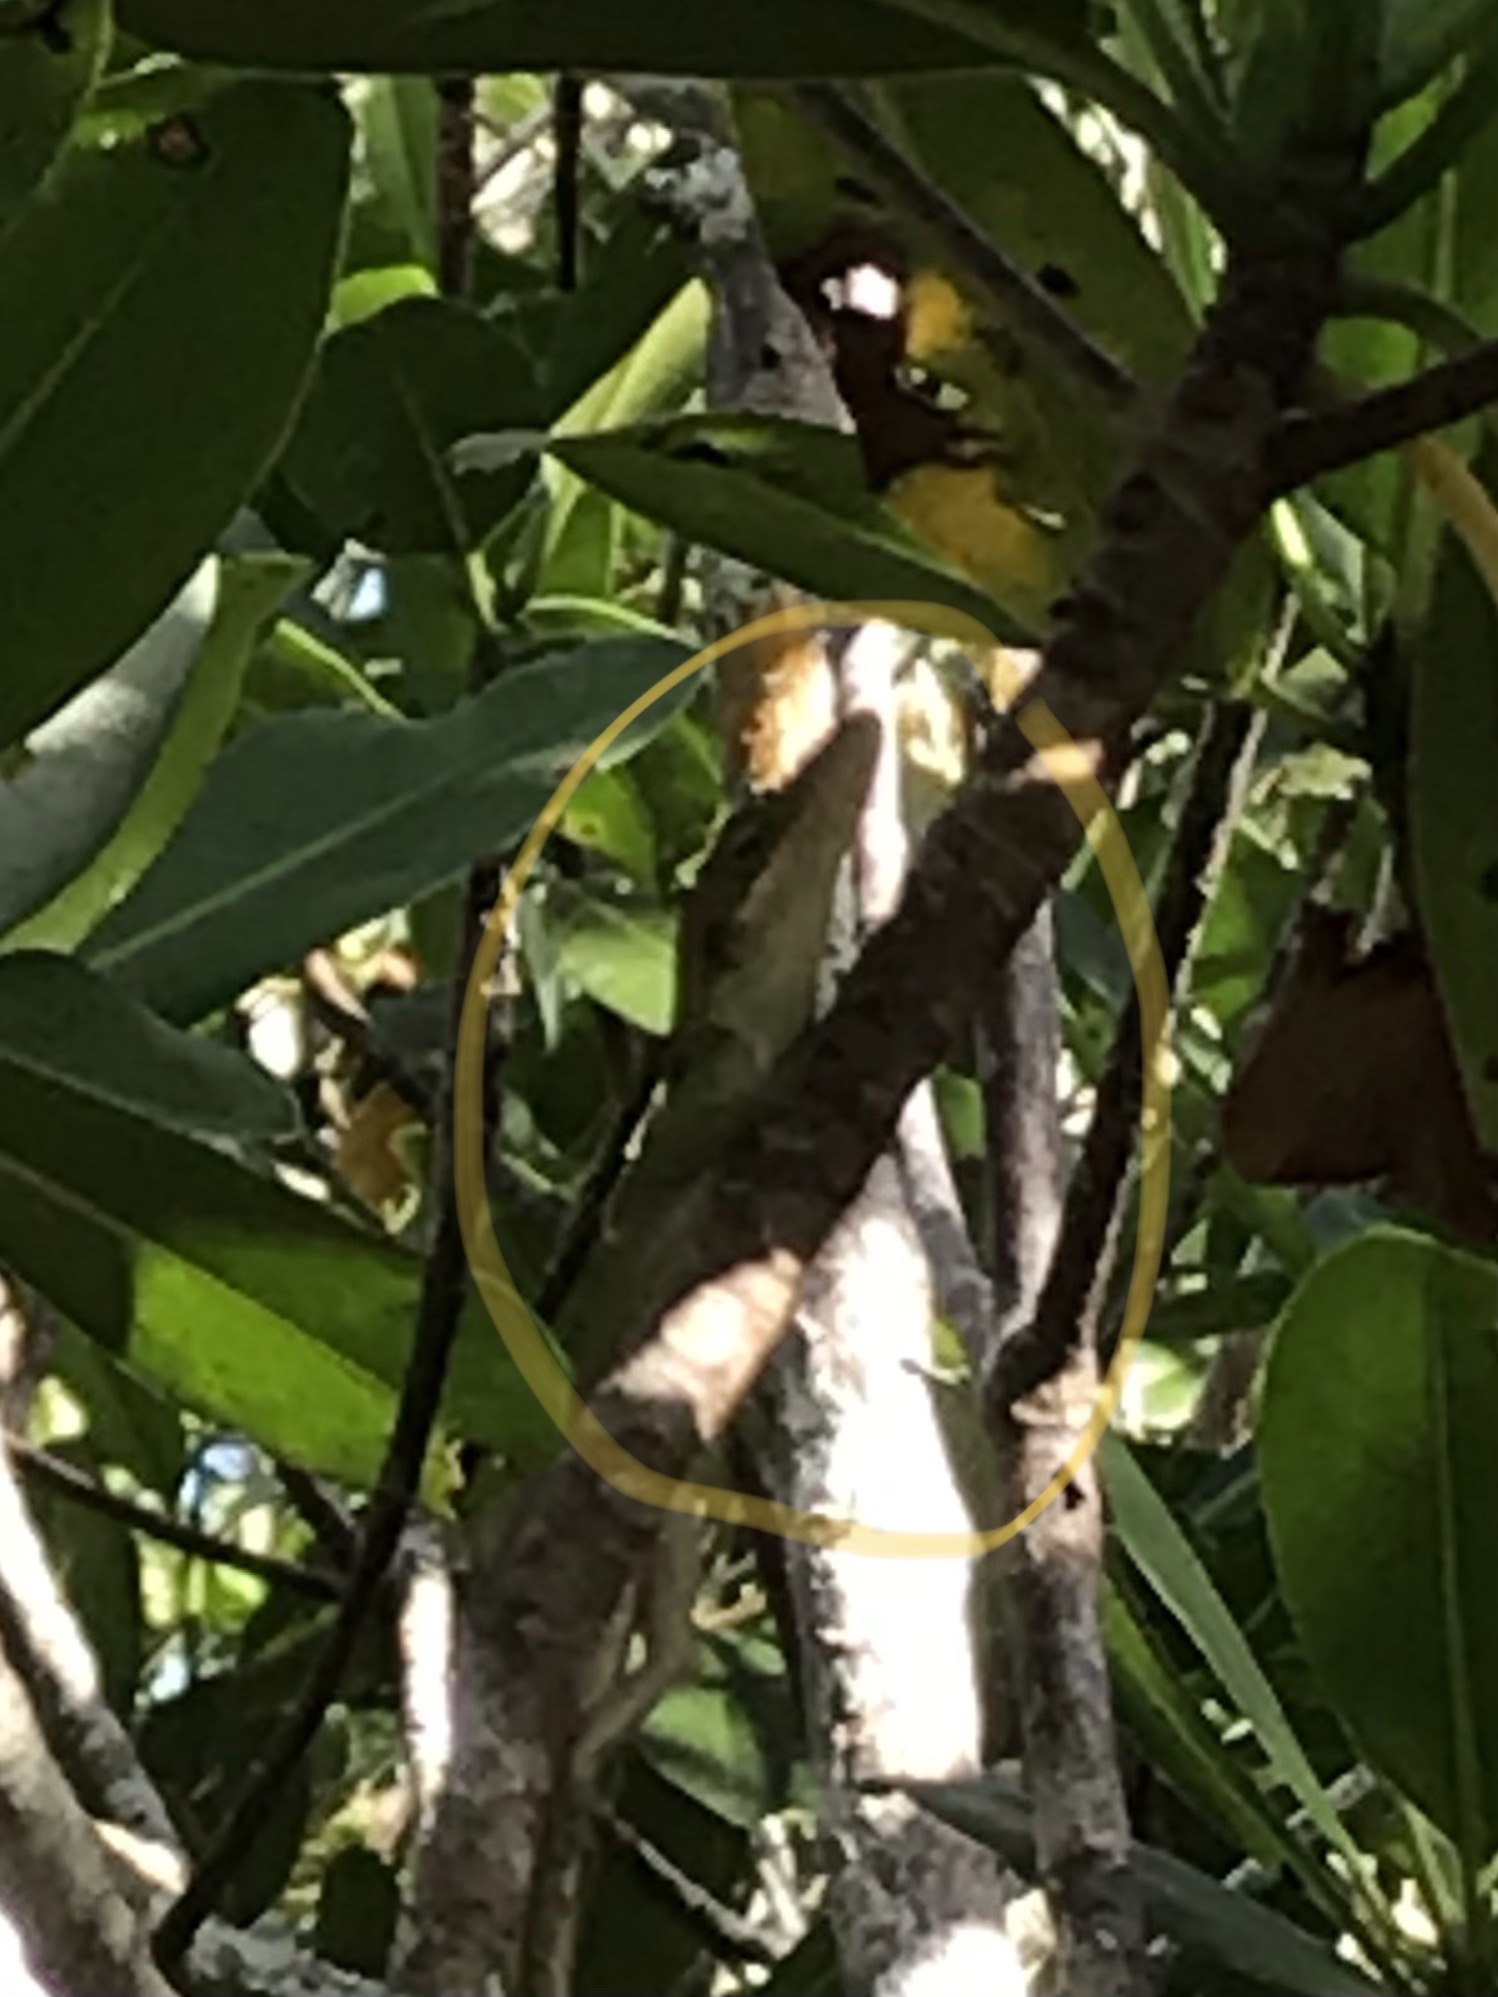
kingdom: Animalia
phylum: Chordata
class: Squamata
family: Dactyloidae
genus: Anolis
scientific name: Anolis carolinensis
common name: Green anole
